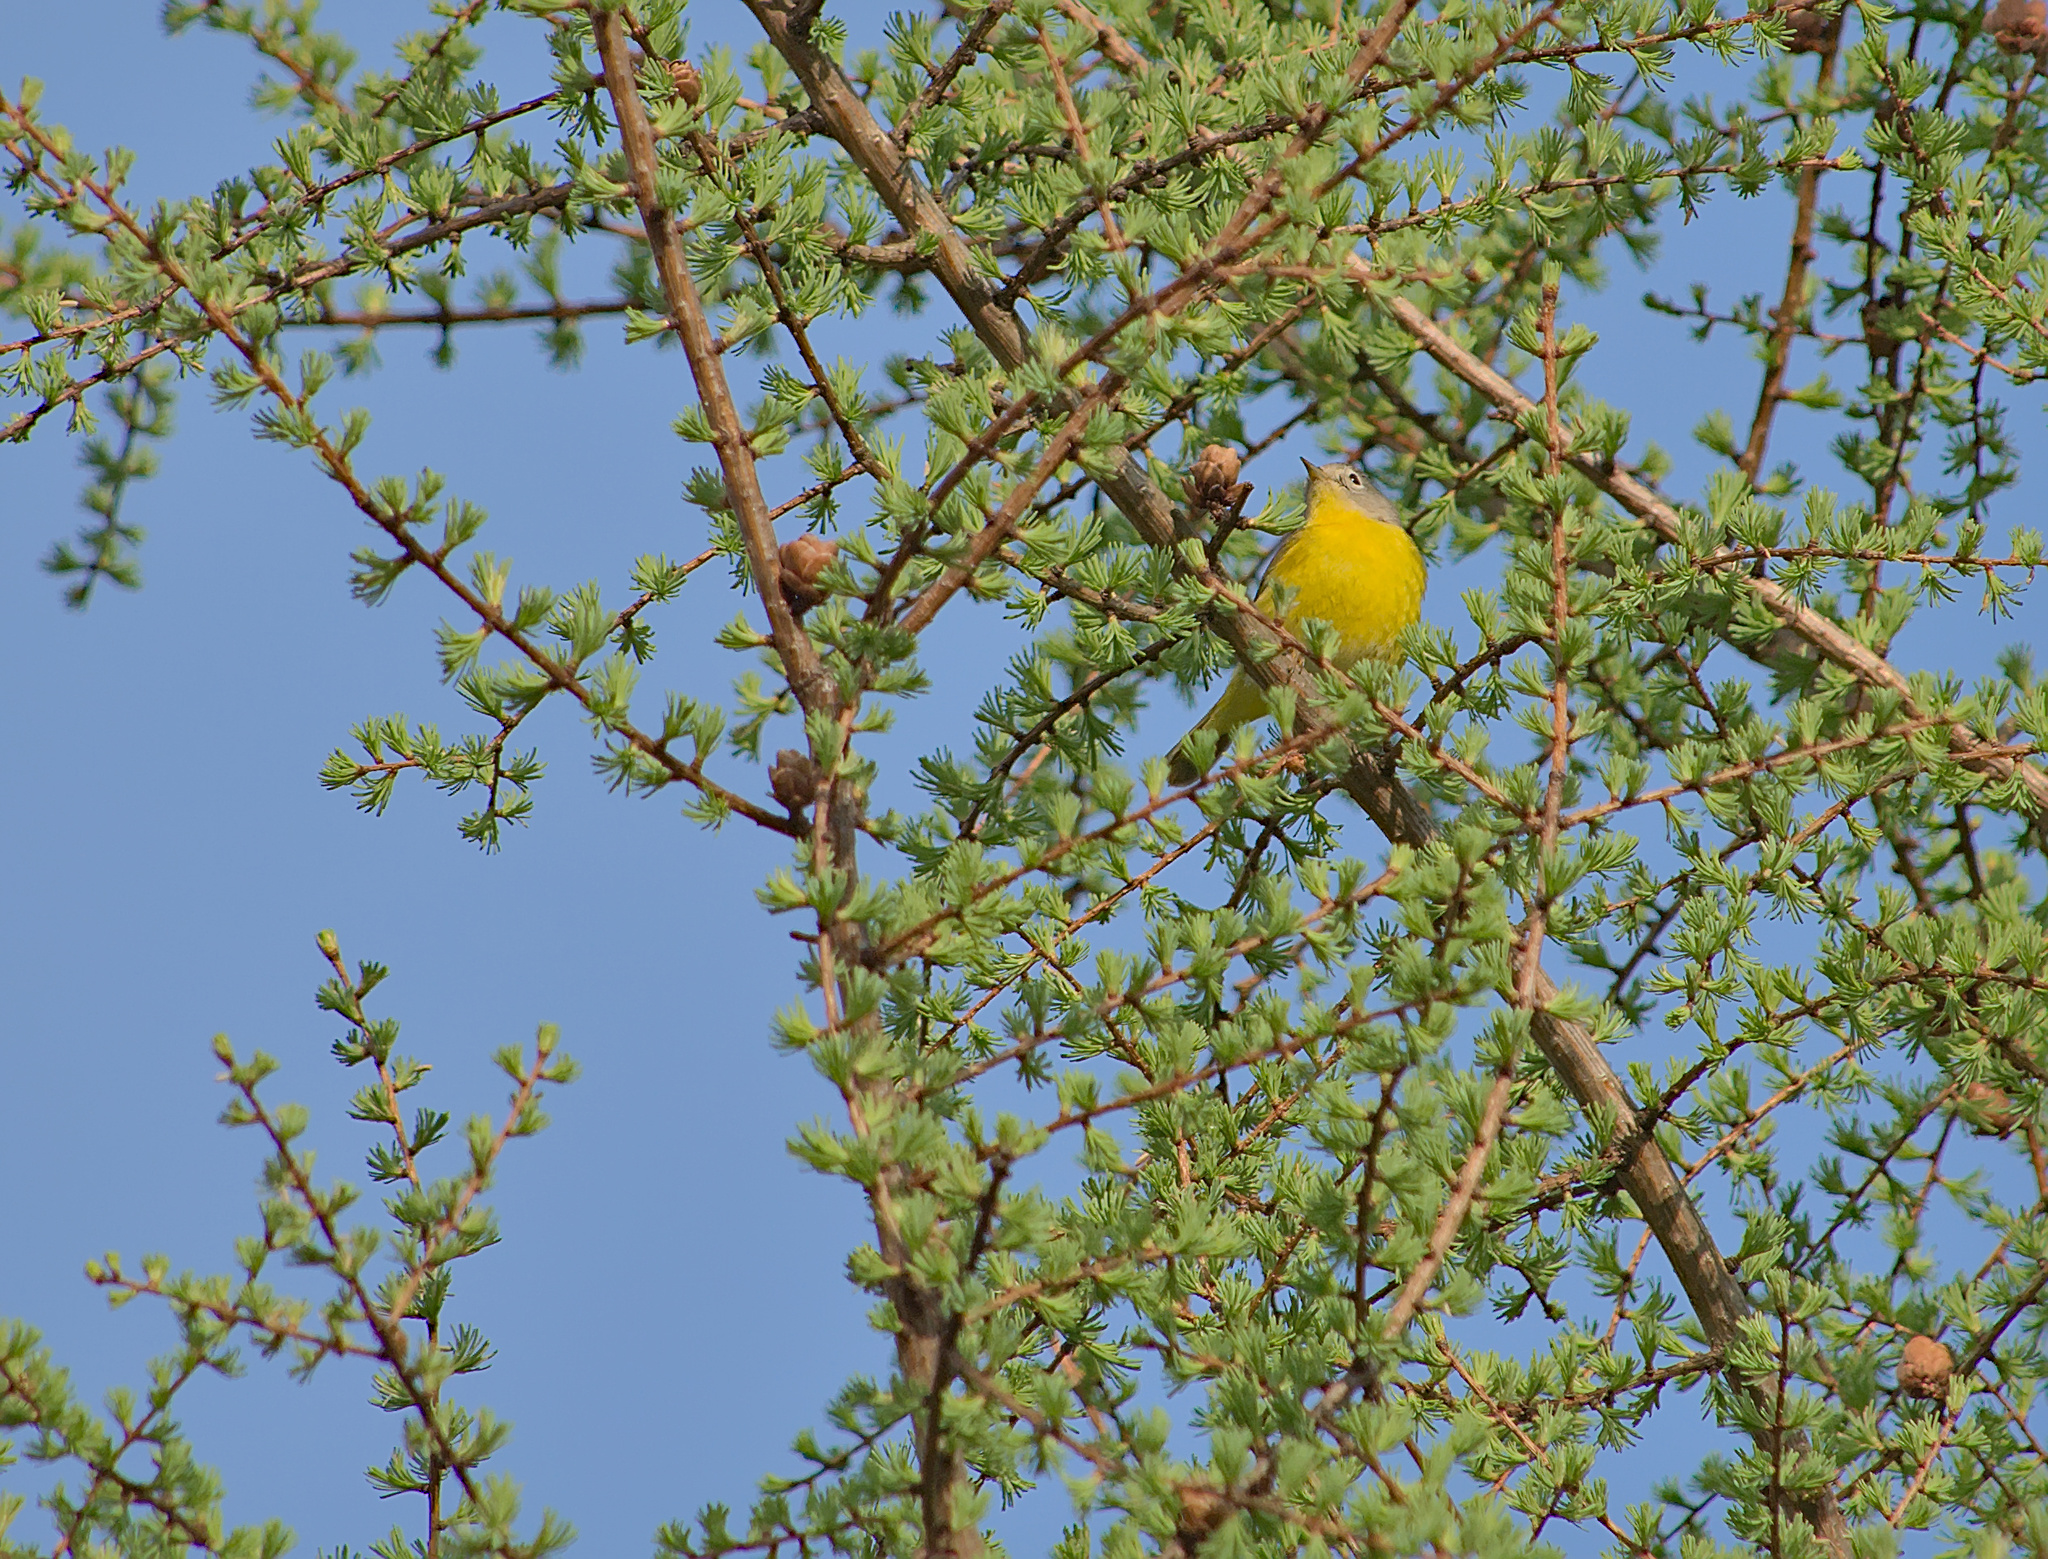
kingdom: Animalia
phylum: Chordata
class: Aves
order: Passeriformes
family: Parulidae
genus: Leiothlypis
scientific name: Leiothlypis ruficapilla
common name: Nashville warbler
